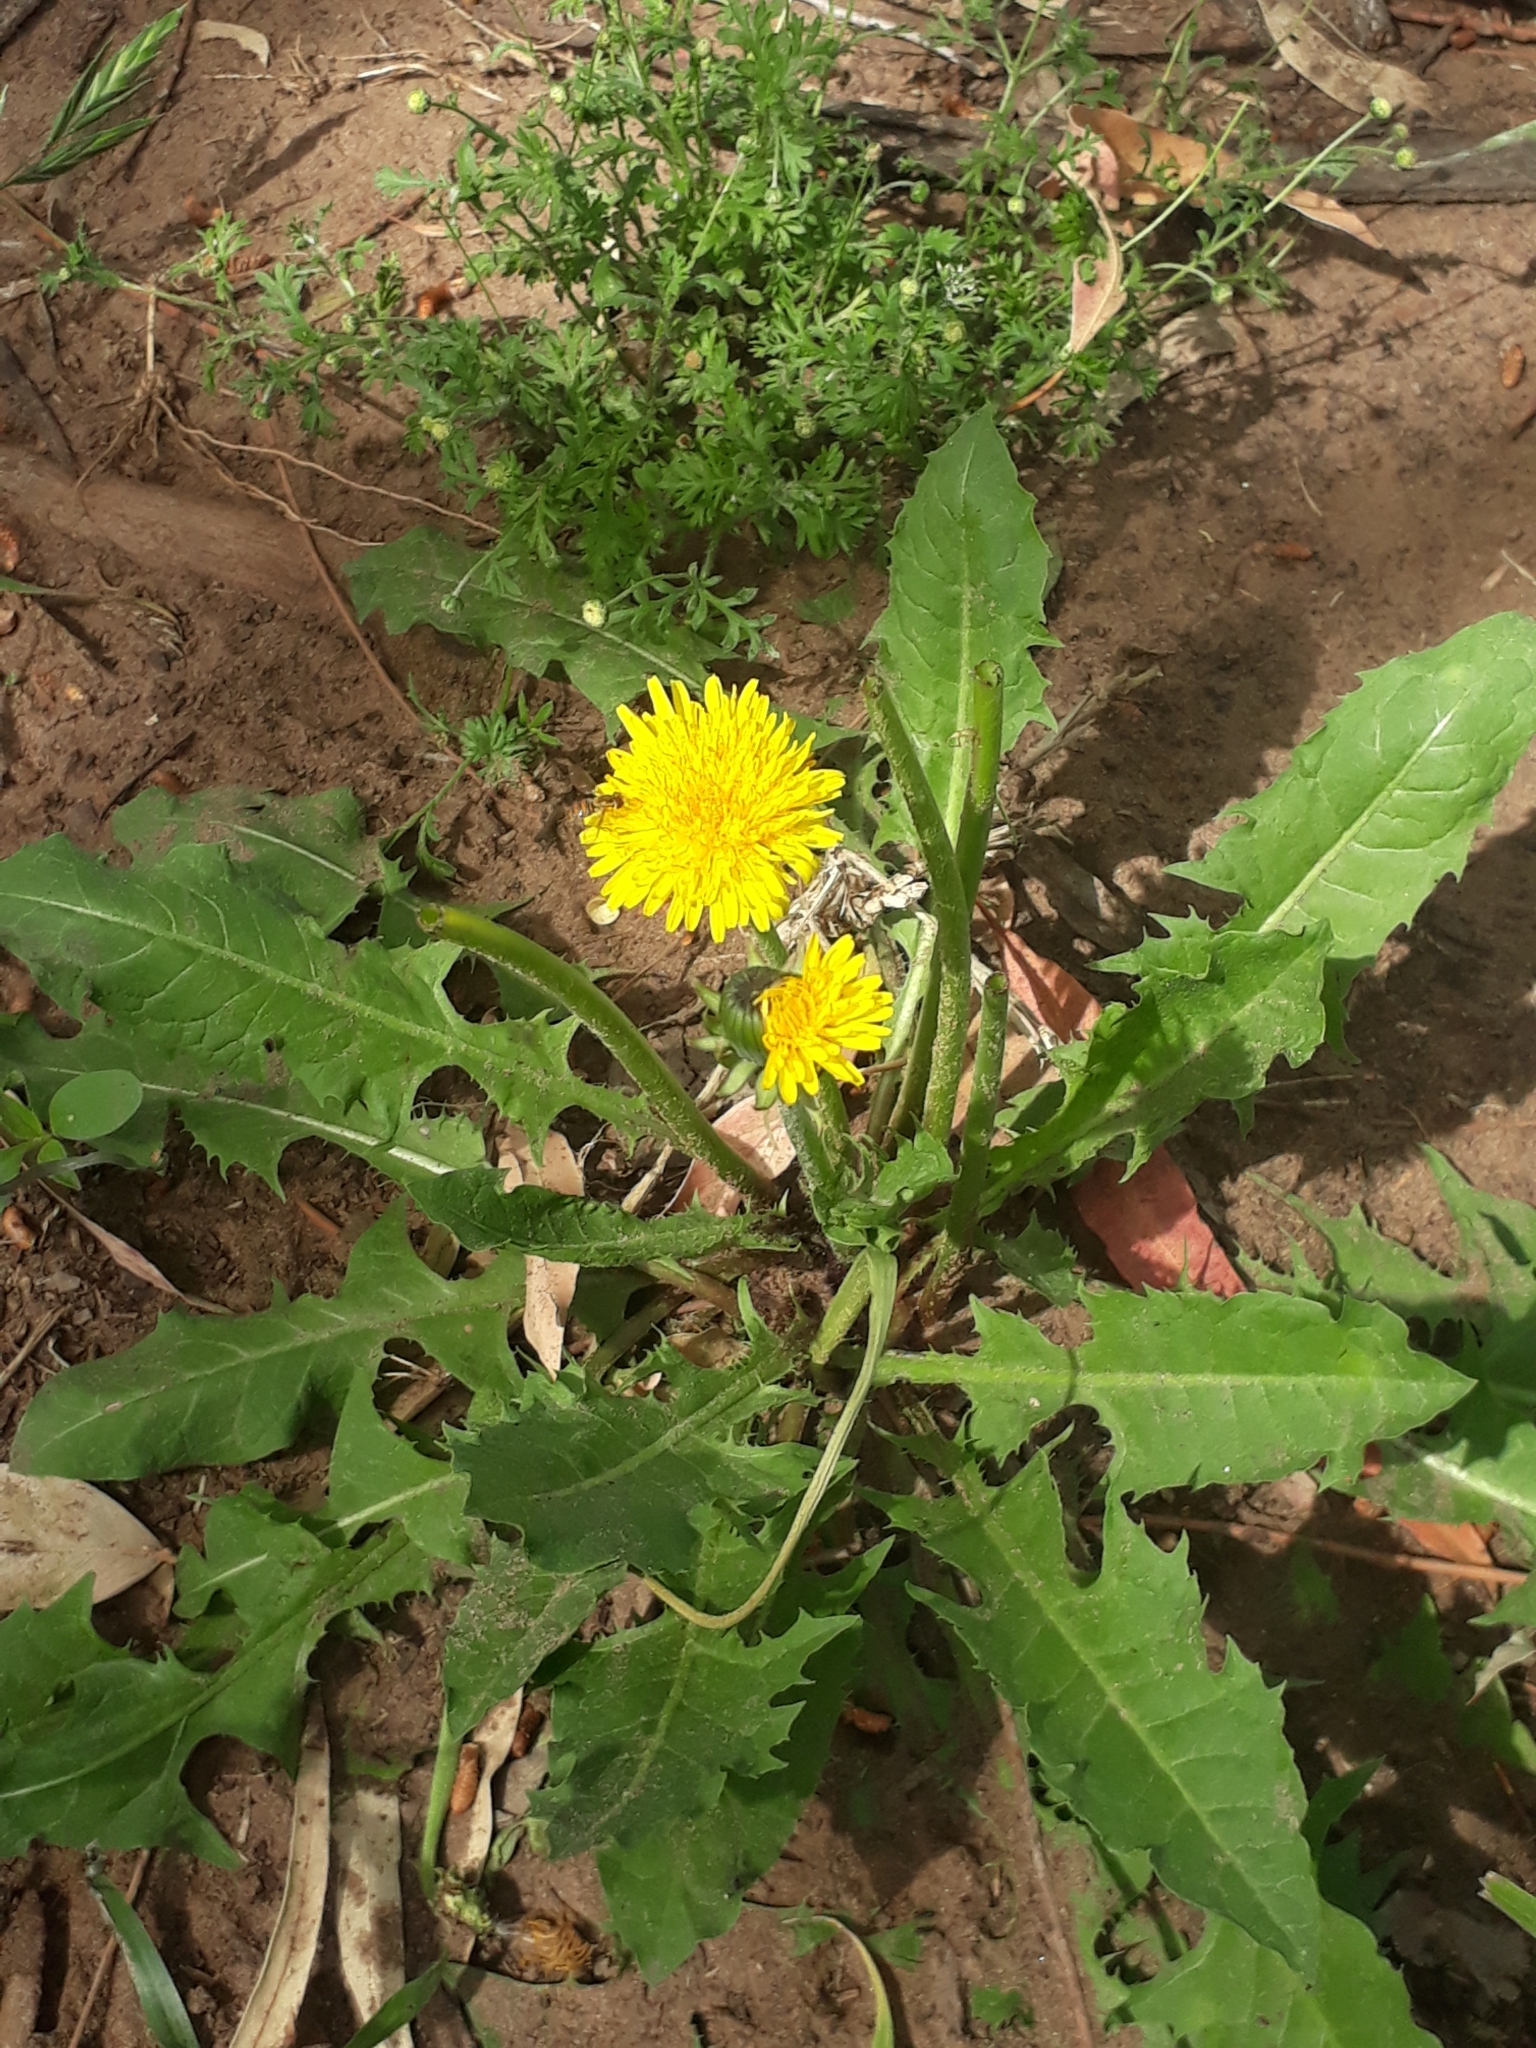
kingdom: Plantae
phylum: Tracheophyta
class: Magnoliopsida
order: Asterales
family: Asteraceae
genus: Taraxacum
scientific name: Taraxacum officinale
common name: Common dandelion
